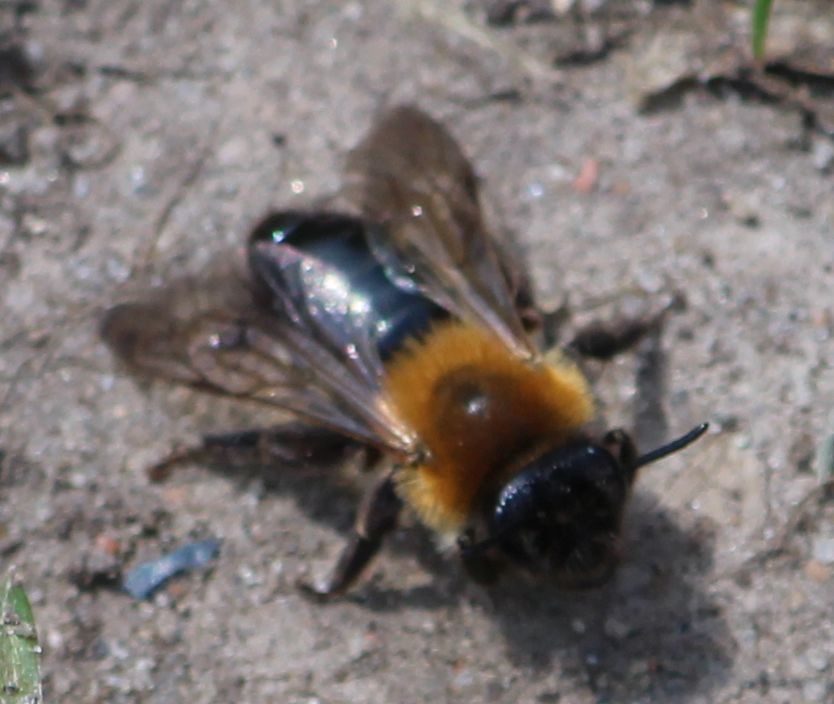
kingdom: Animalia
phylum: Arthropoda
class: Insecta
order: Hymenoptera
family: Andrenidae
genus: Andrena
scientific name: Andrena nitida
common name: Grey-patched mining bee
